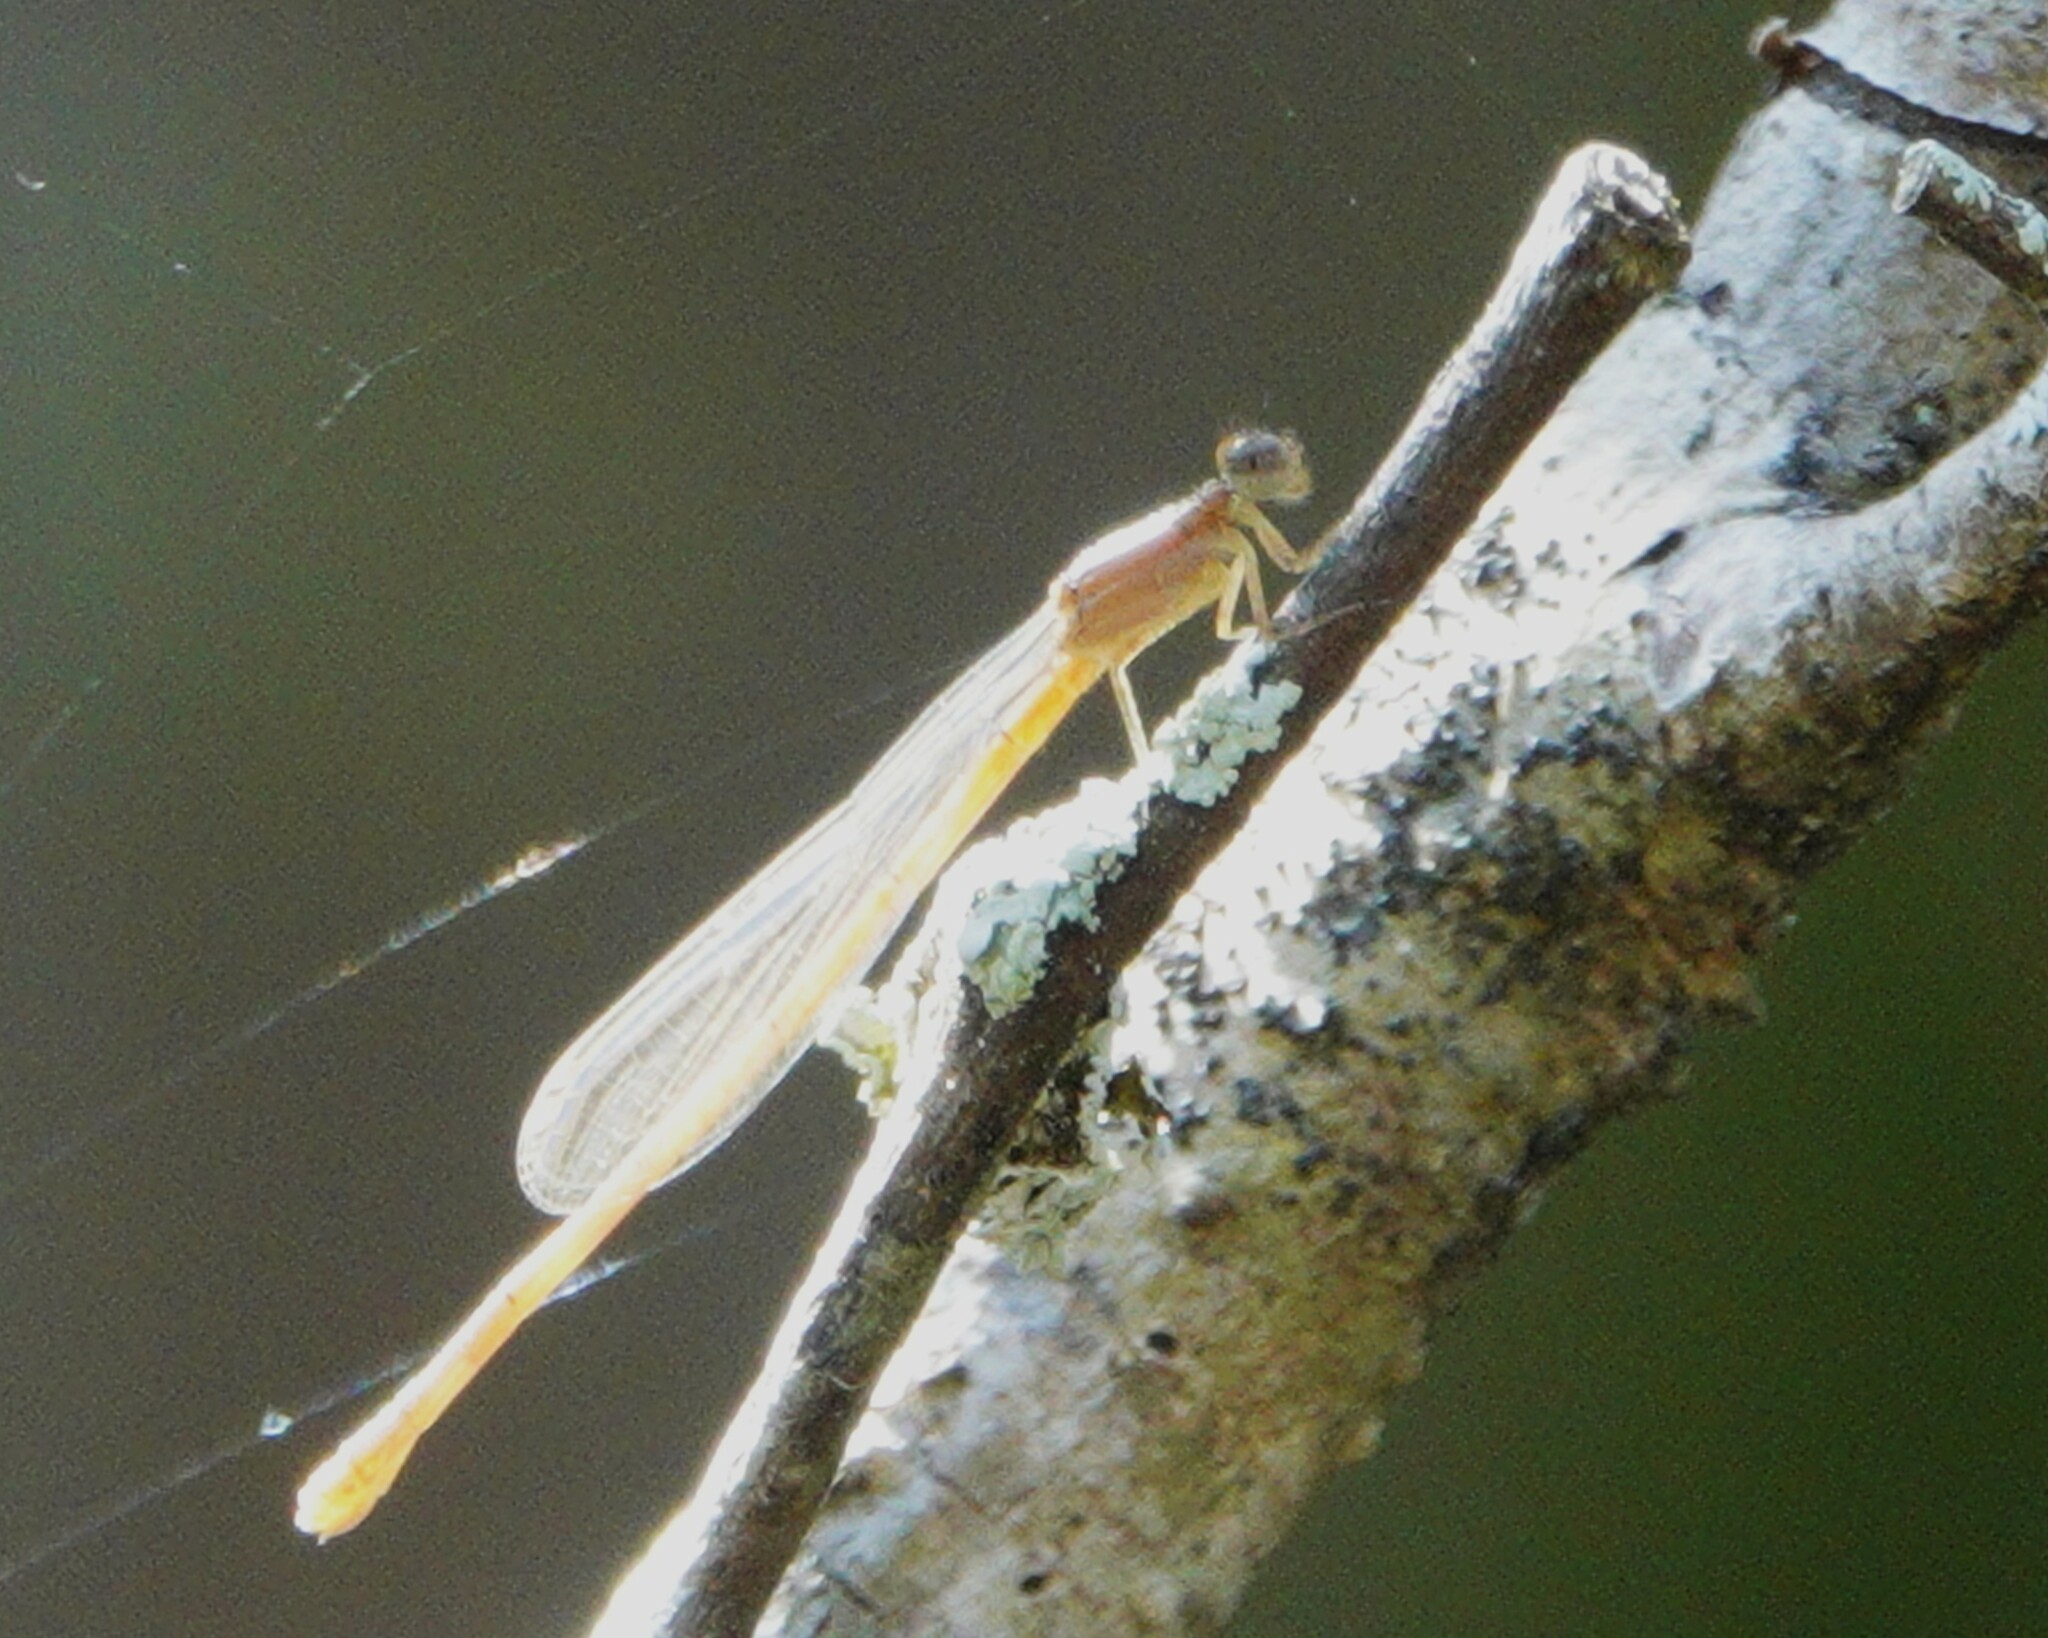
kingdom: Animalia
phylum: Arthropoda
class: Insecta
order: Odonata
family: Coenagrionidae
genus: Ischnura
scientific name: Ischnura prognata
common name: Furtive forktail
